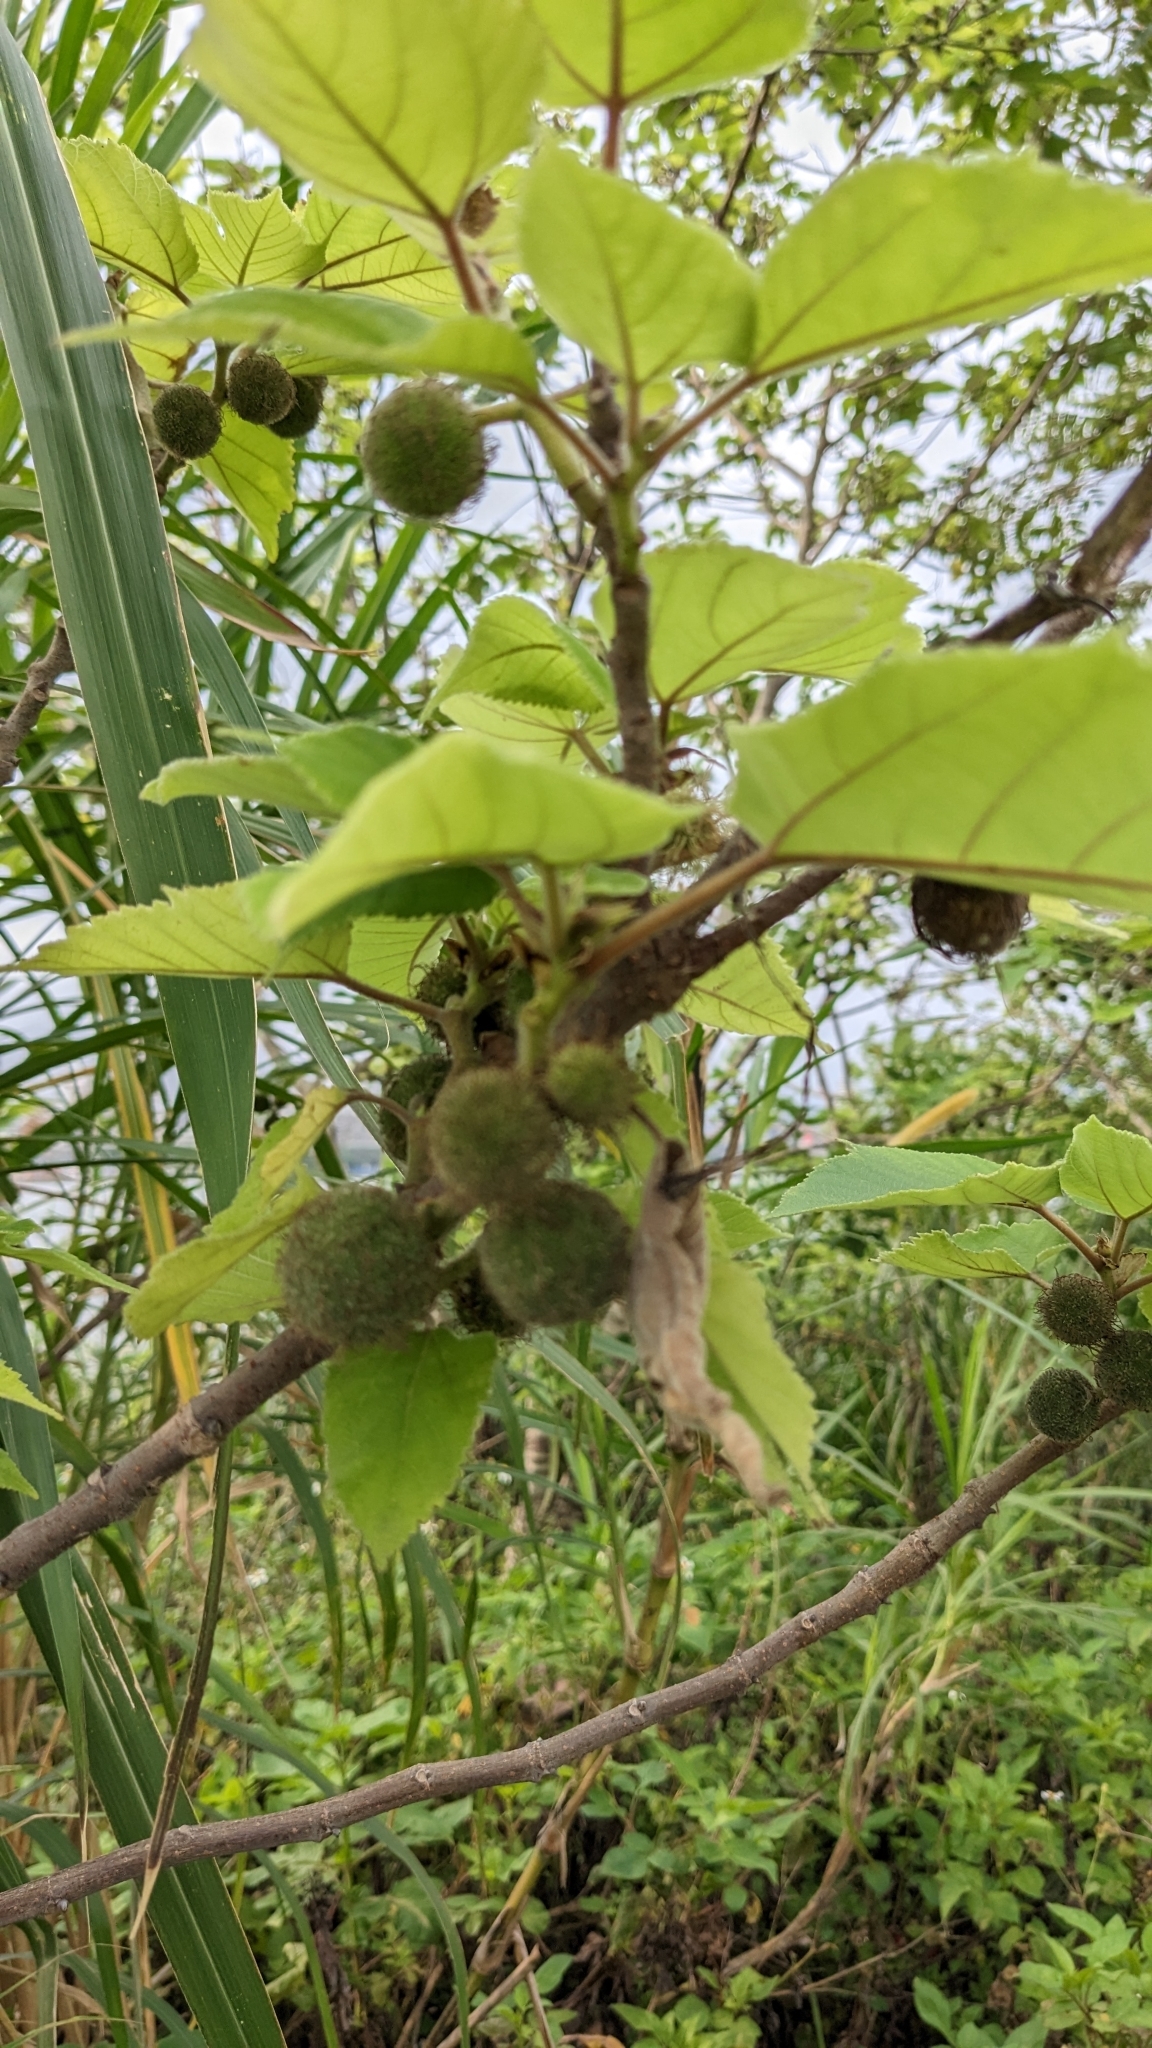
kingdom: Plantae
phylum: Tracheophyta
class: Magnoliopsida
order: Rosales
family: Moraceae
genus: Broussonetia
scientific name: Broussonetia papyrifera
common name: Paper mulberry
